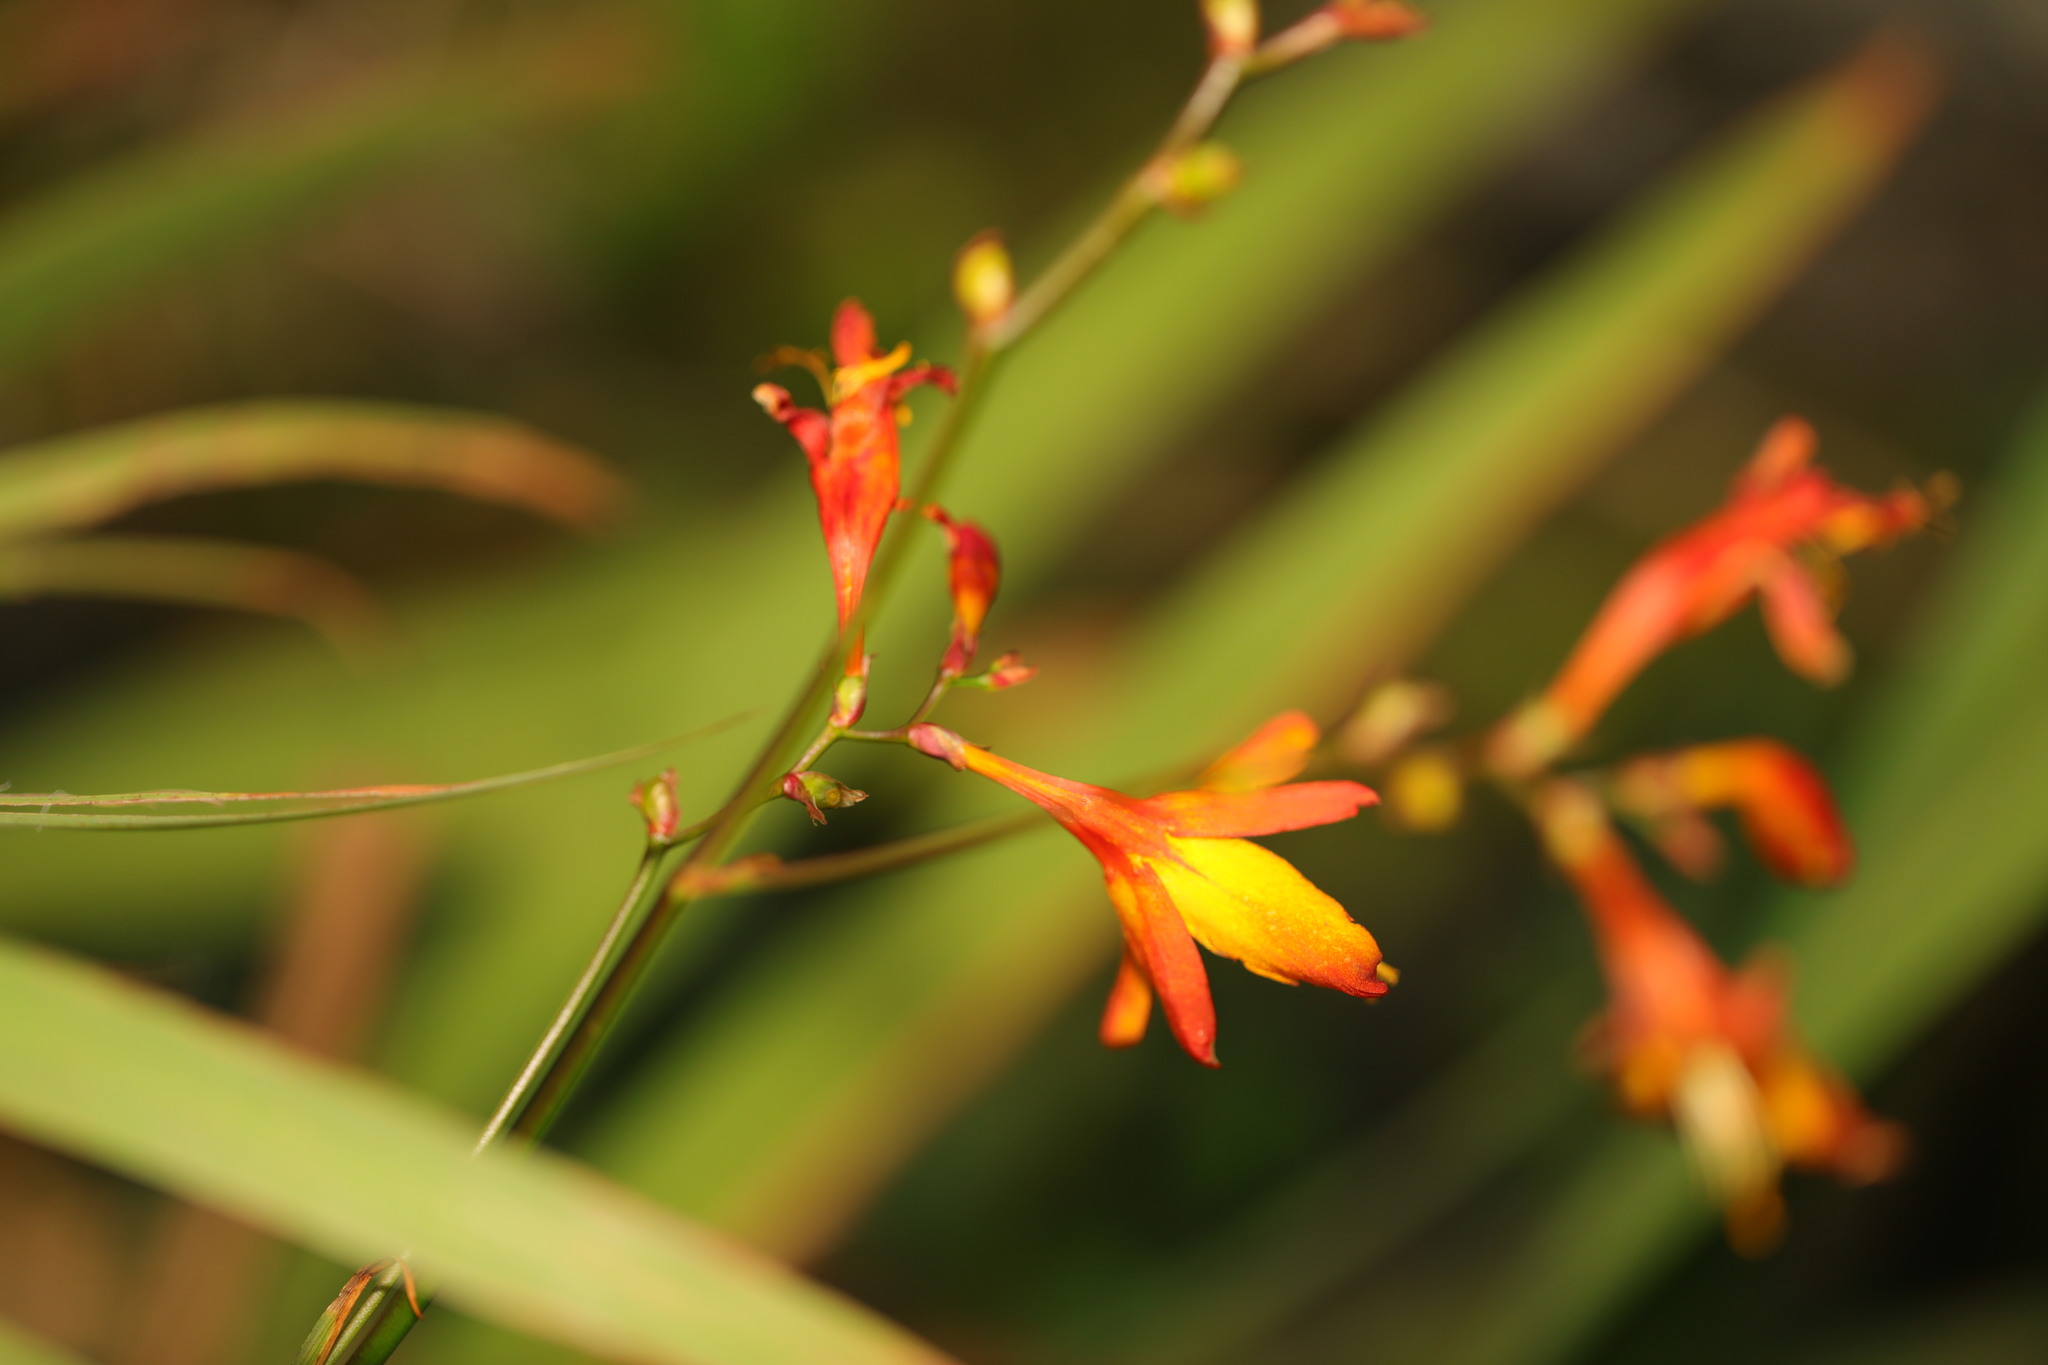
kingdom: Plantae
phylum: Tracheophyta
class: Liliopsida
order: Asparagales
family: Iridaceae
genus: Crocosmia
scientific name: Crocosmia crocosmiiflora
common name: Montbretia
